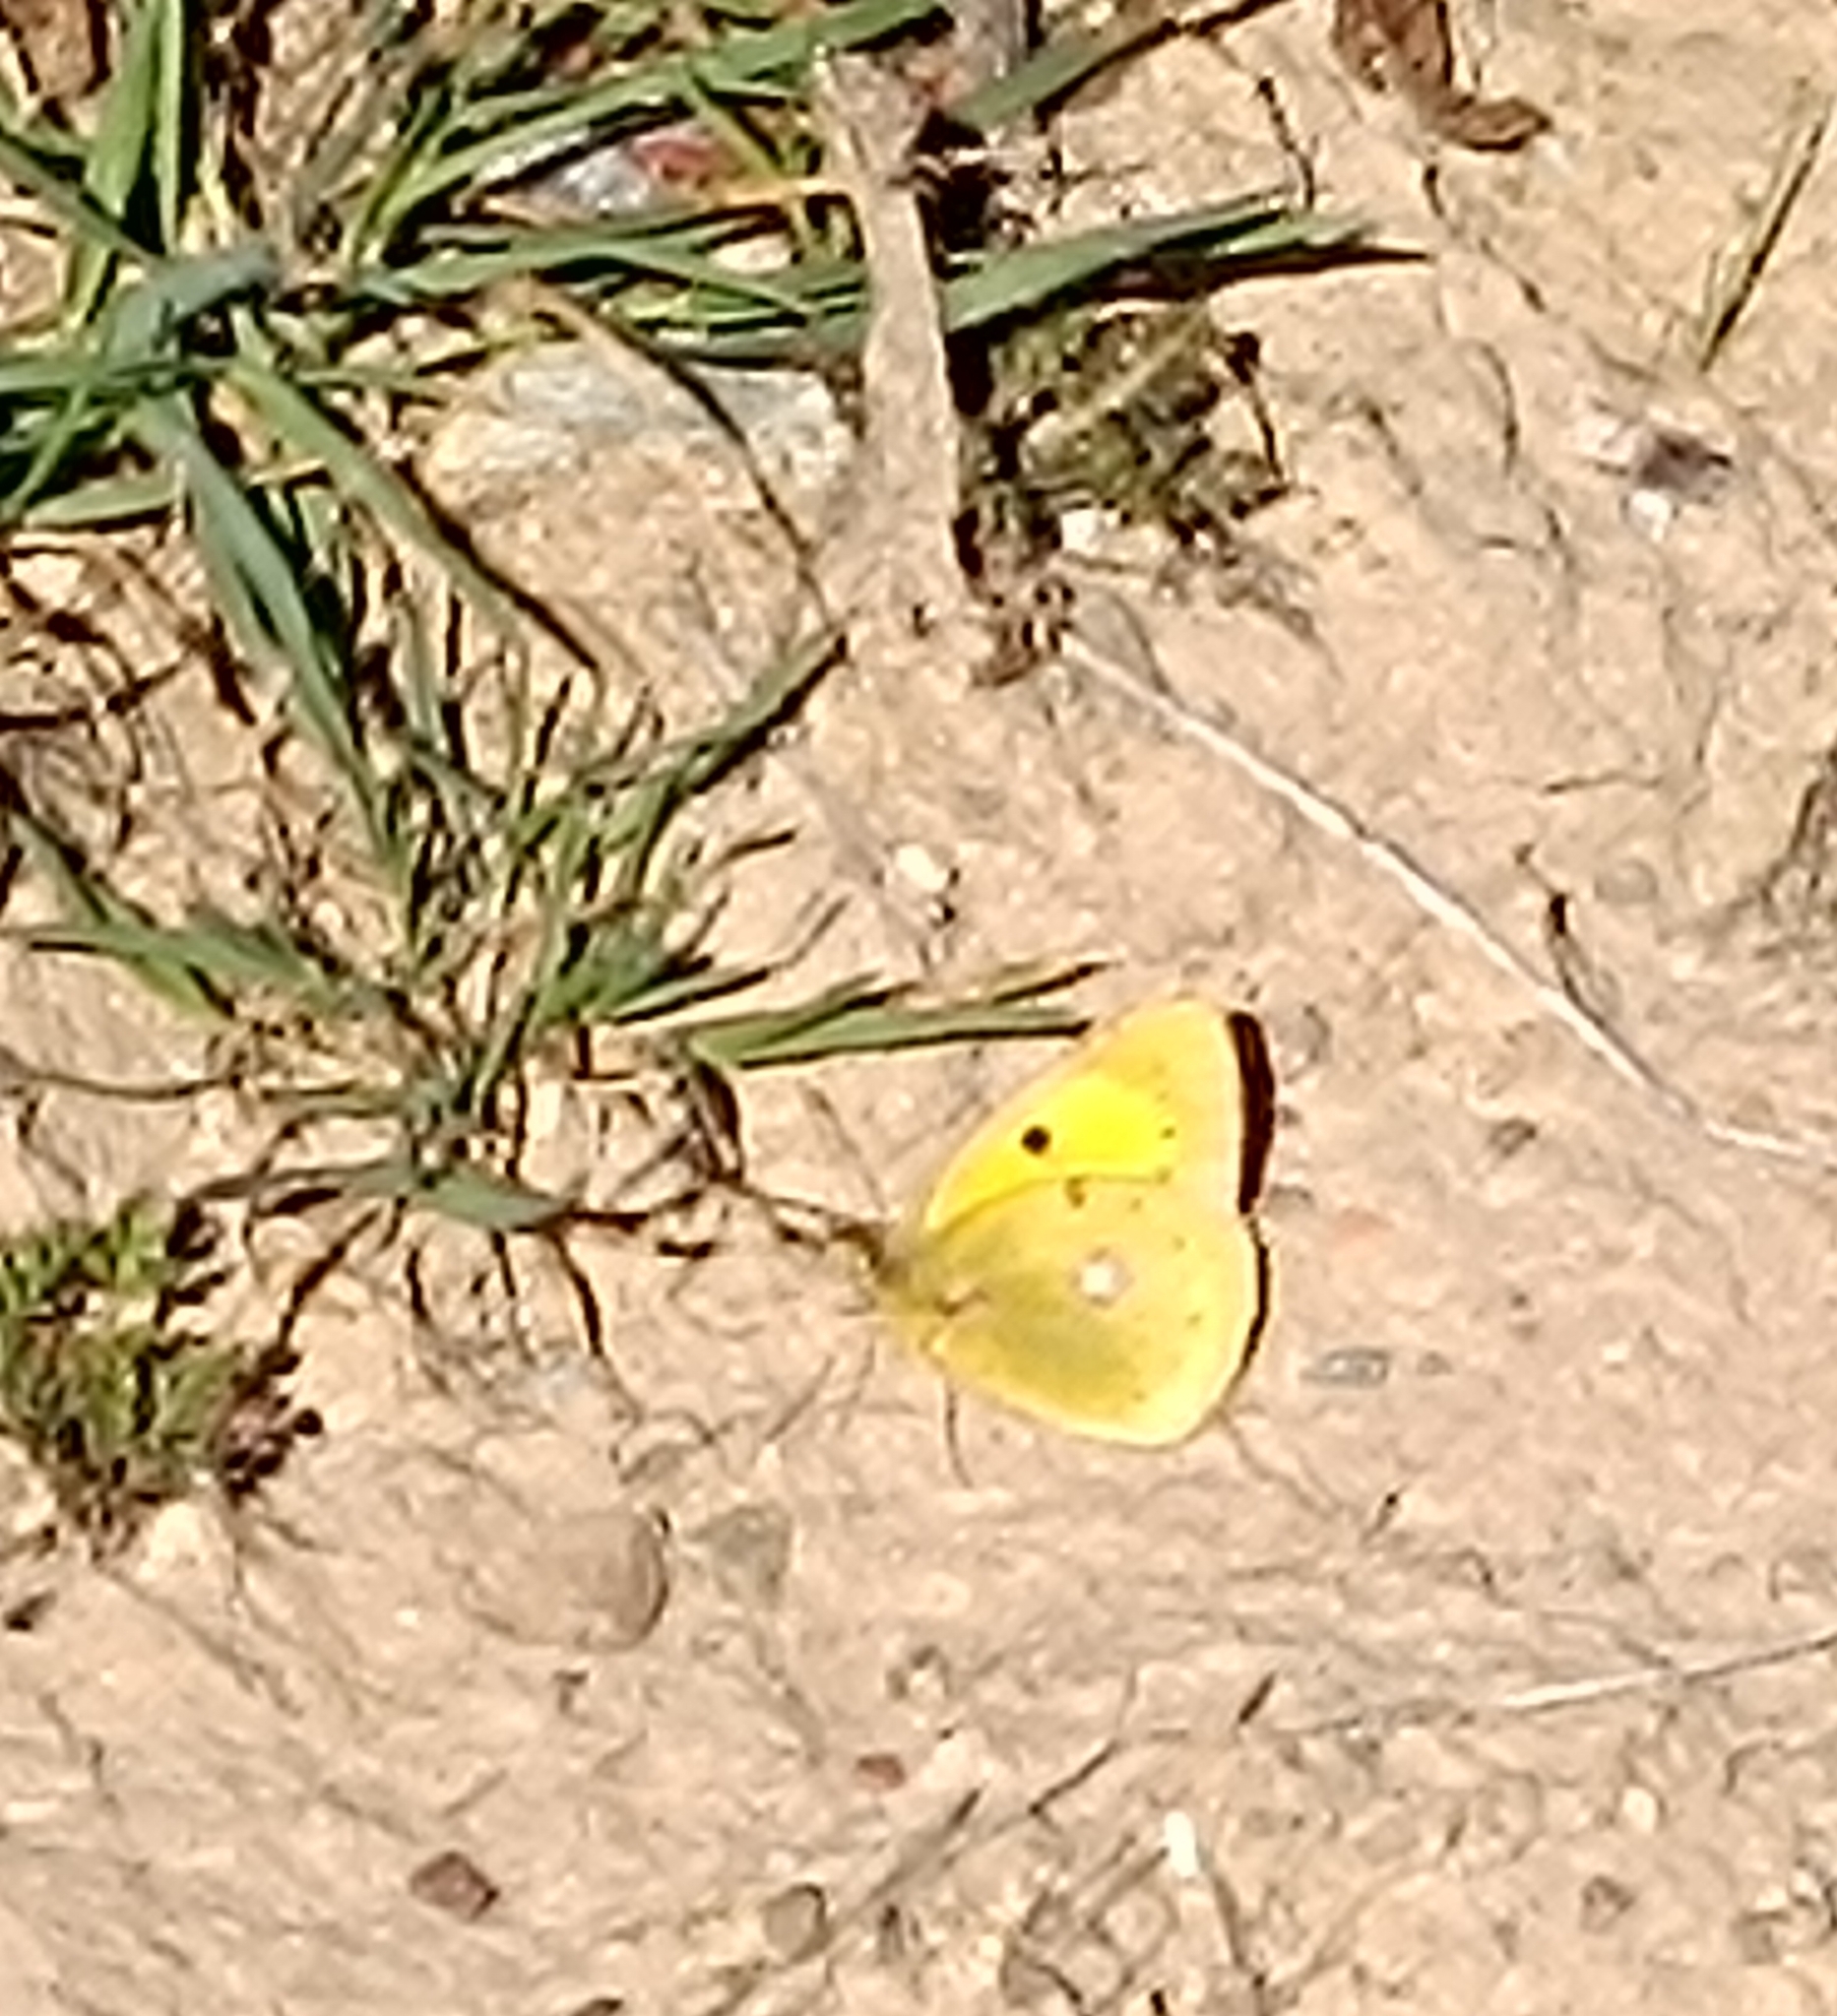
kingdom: Animalia
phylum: Arthropoda
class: Insecta
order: Lepidoptera
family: Pieridae
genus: Colias
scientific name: Colias croceus
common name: Clouded yellow
